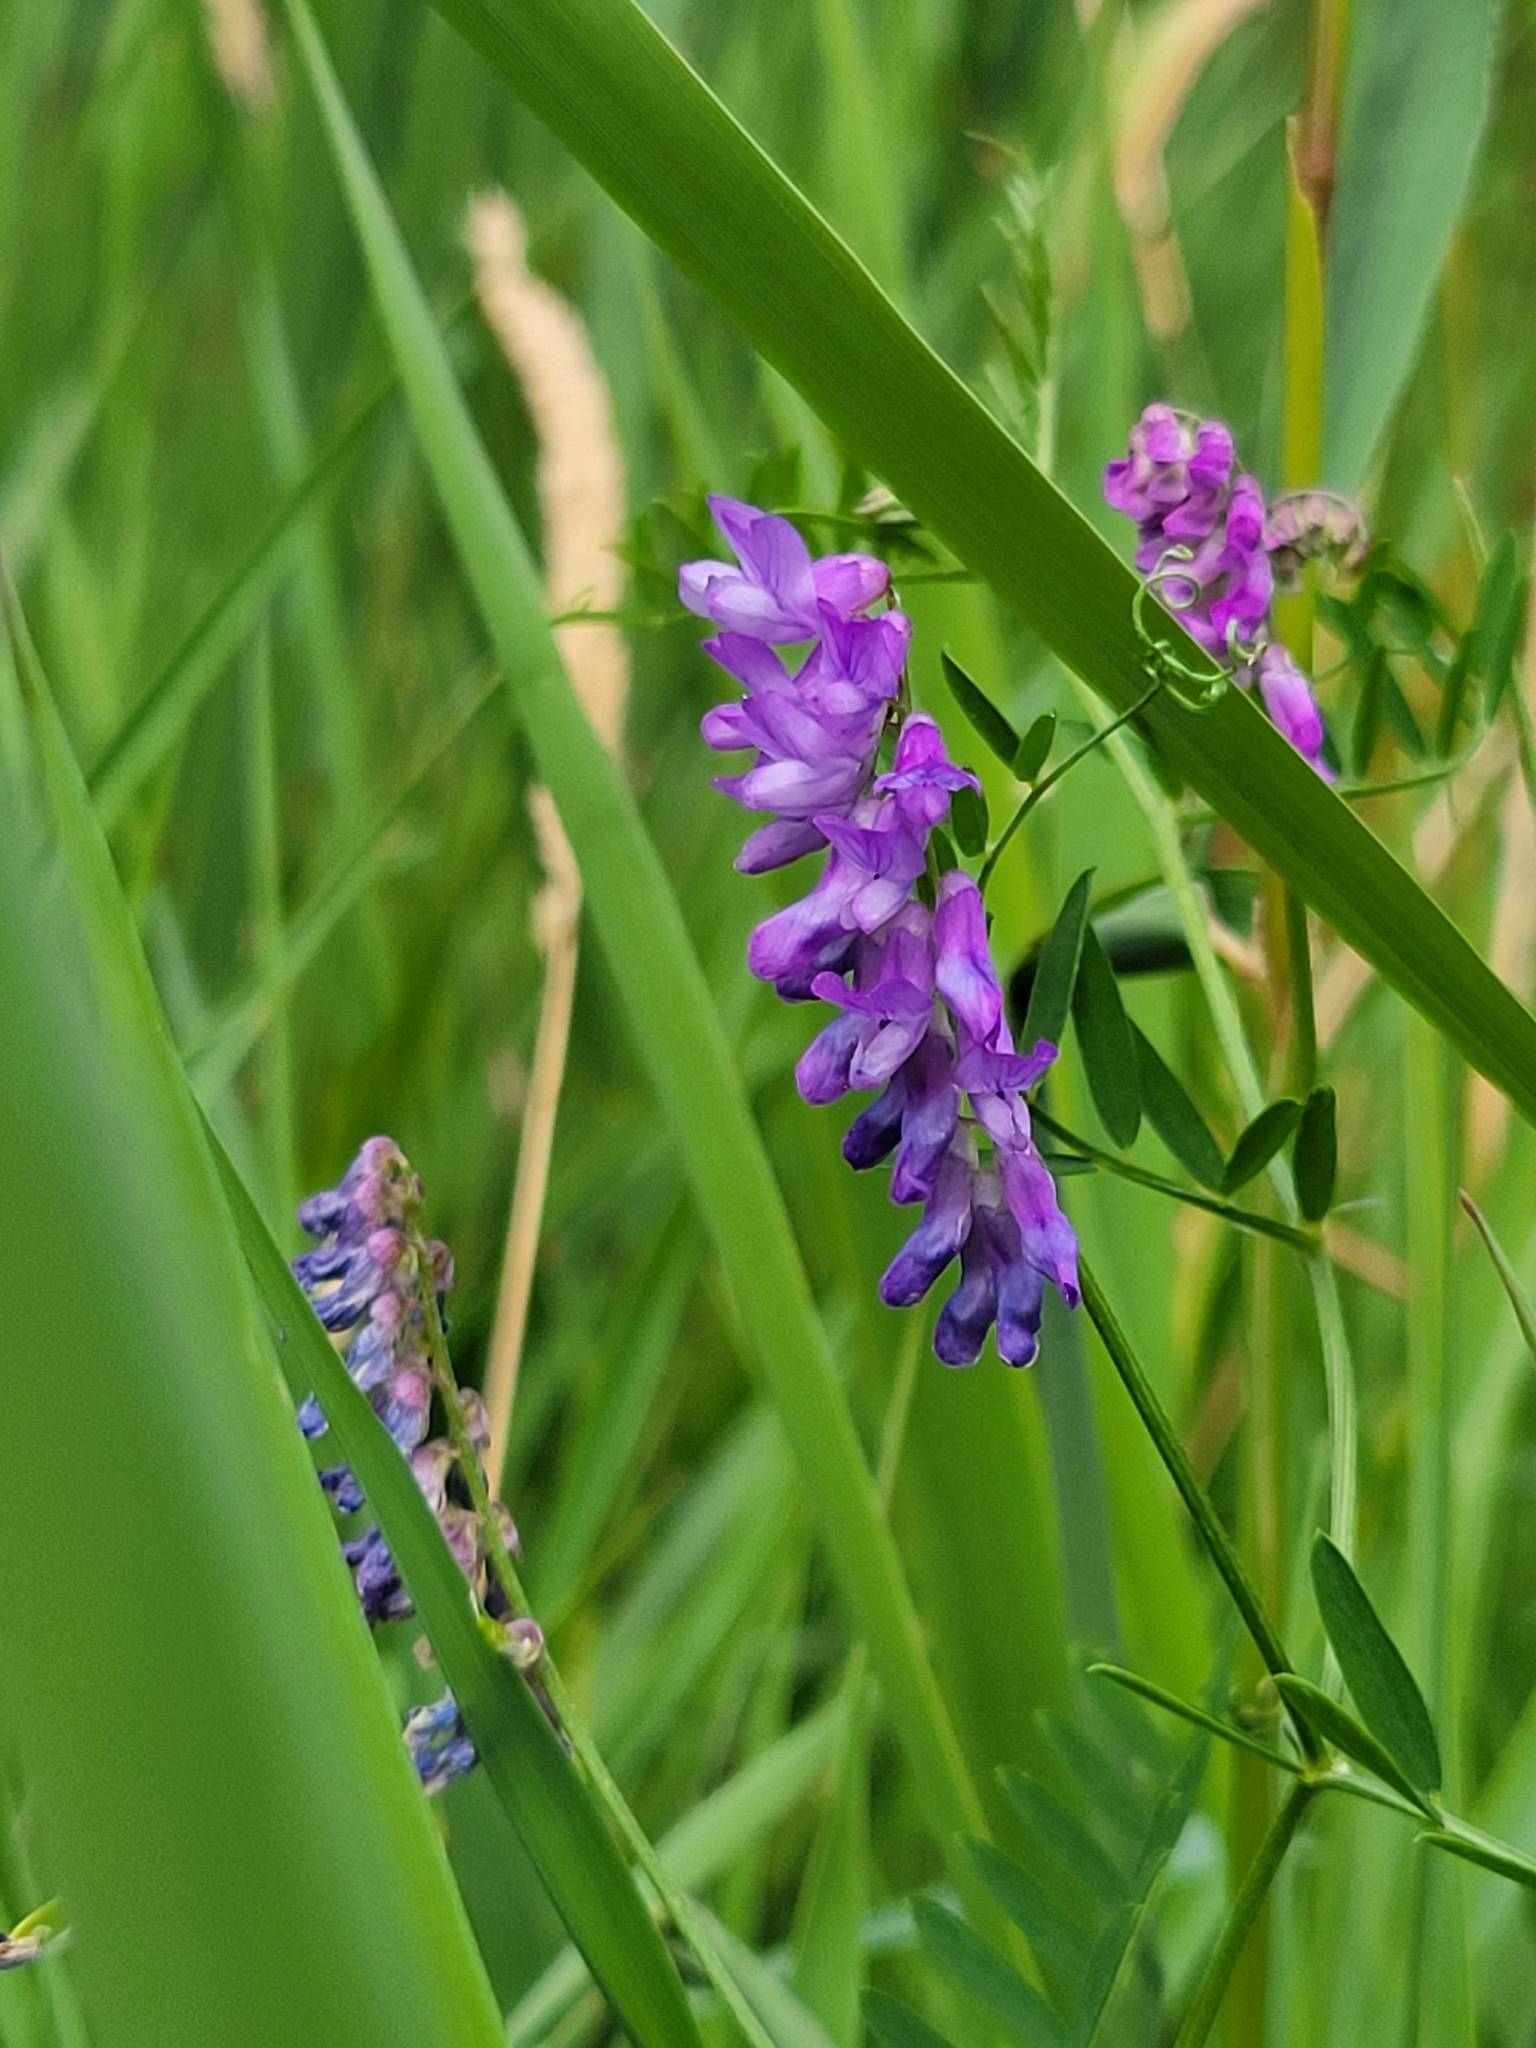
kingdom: Plantae
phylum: Tracheophyta
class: Magnoliopsida
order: Fabales
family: Fabaceae
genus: Vicia
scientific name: Vicia cracca
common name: Bird vetch
